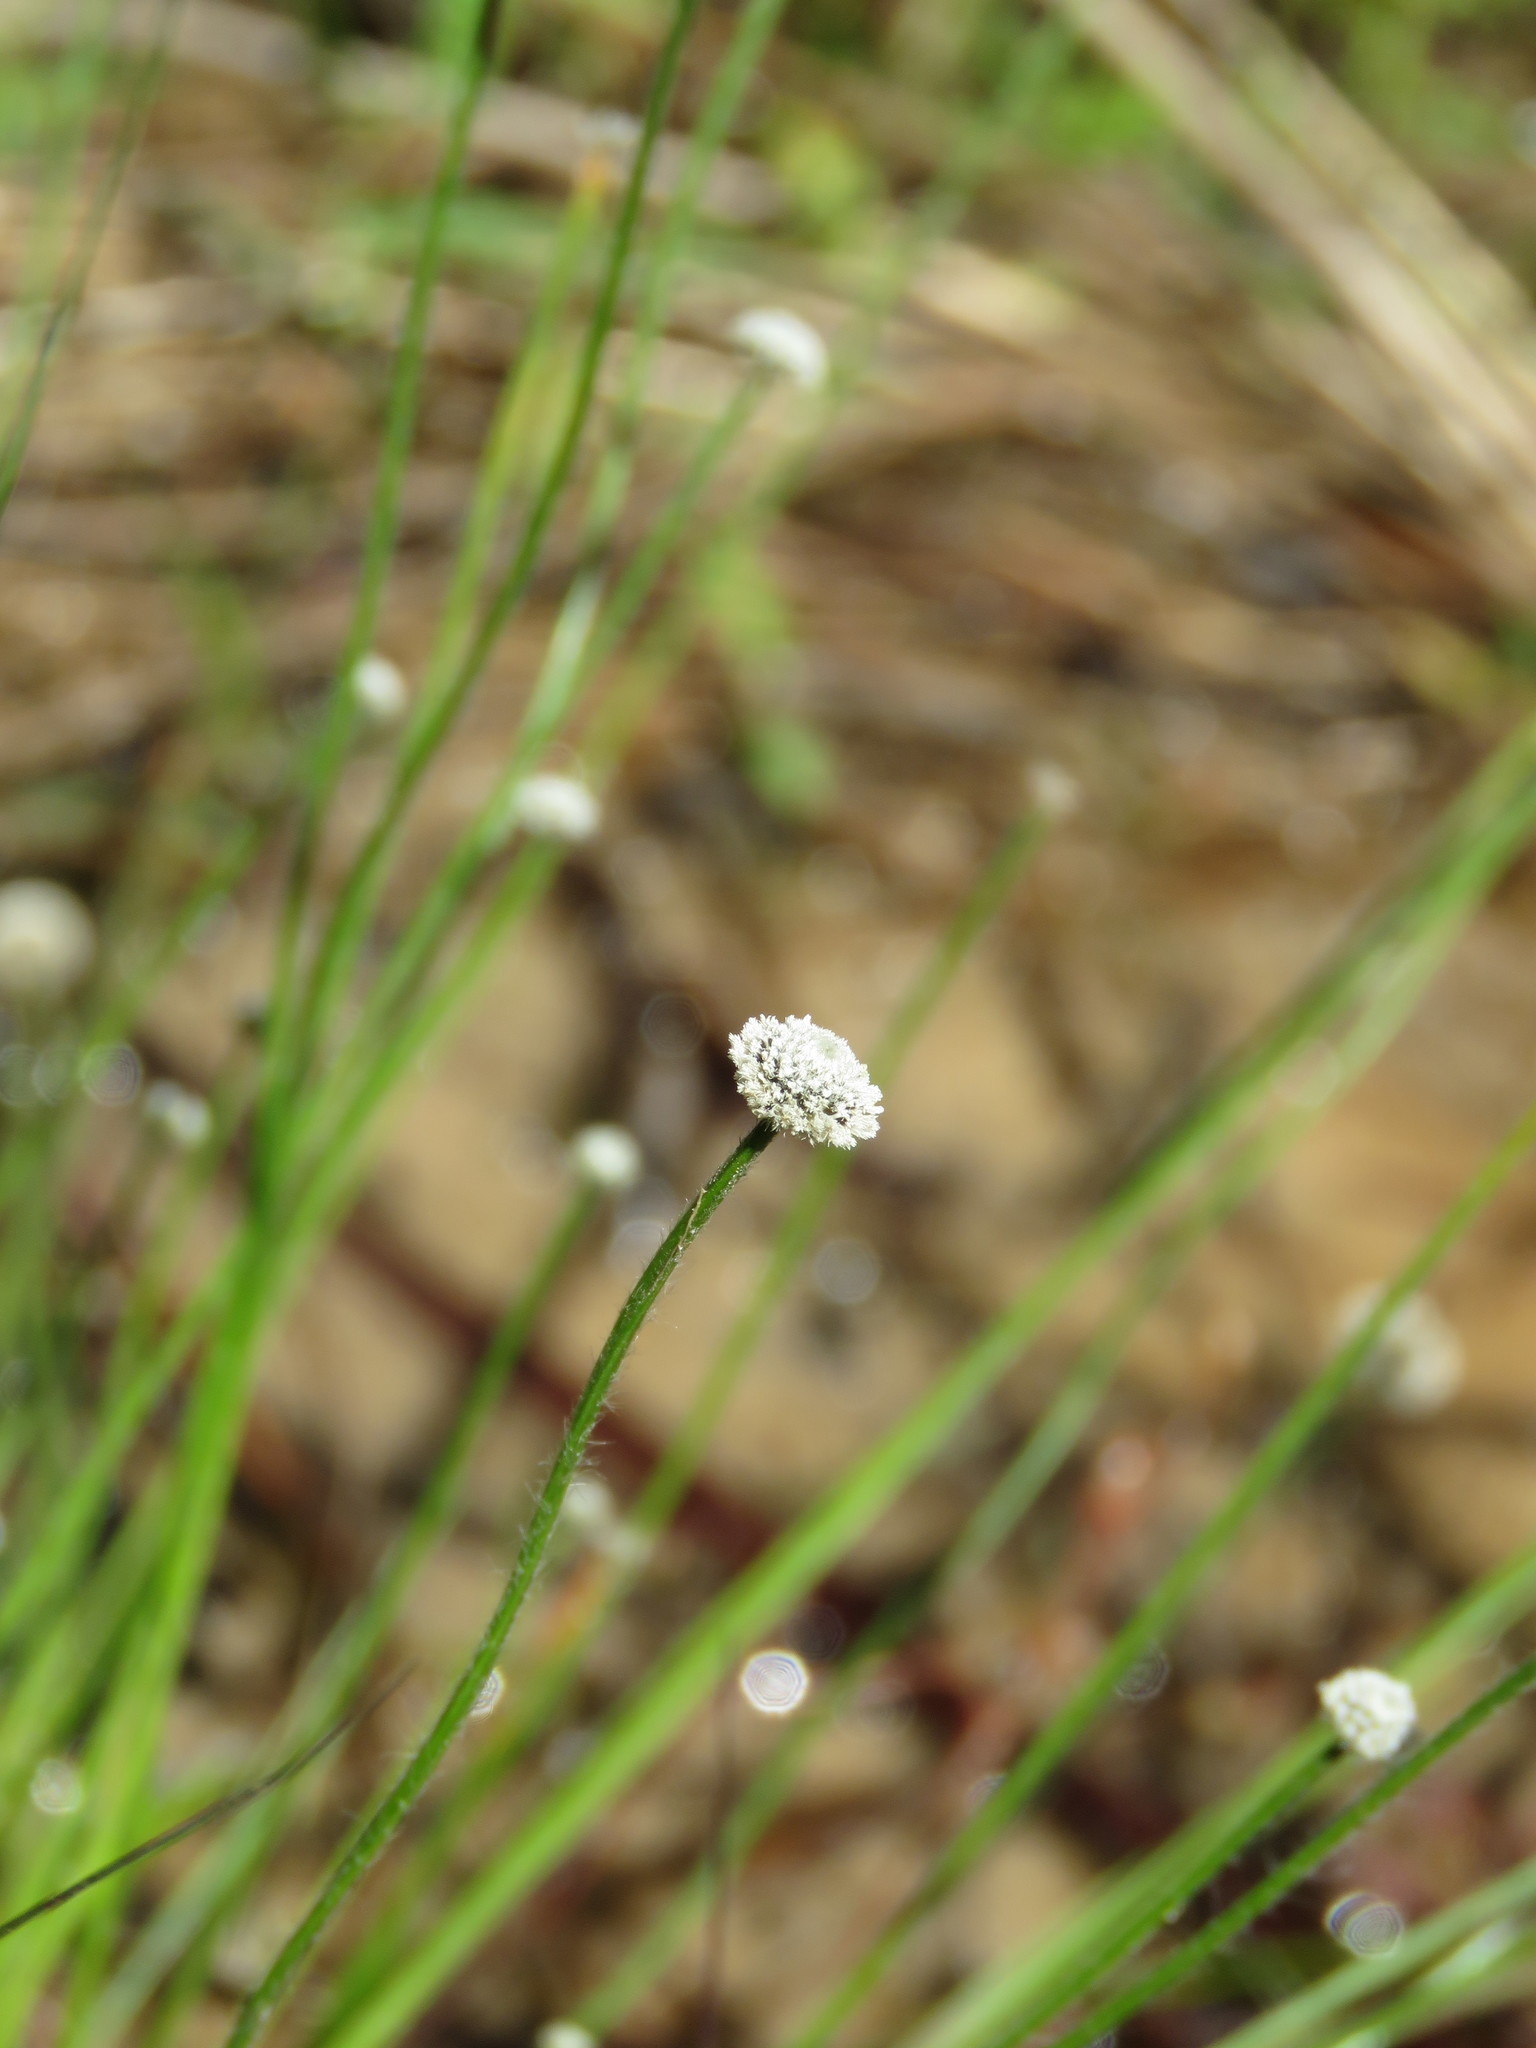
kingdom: Plantae
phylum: Tracheophyta
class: Liliopsida
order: Poales
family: Eriocaulaceae
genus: Paepalanthus
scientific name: Paepalanthus anceps
